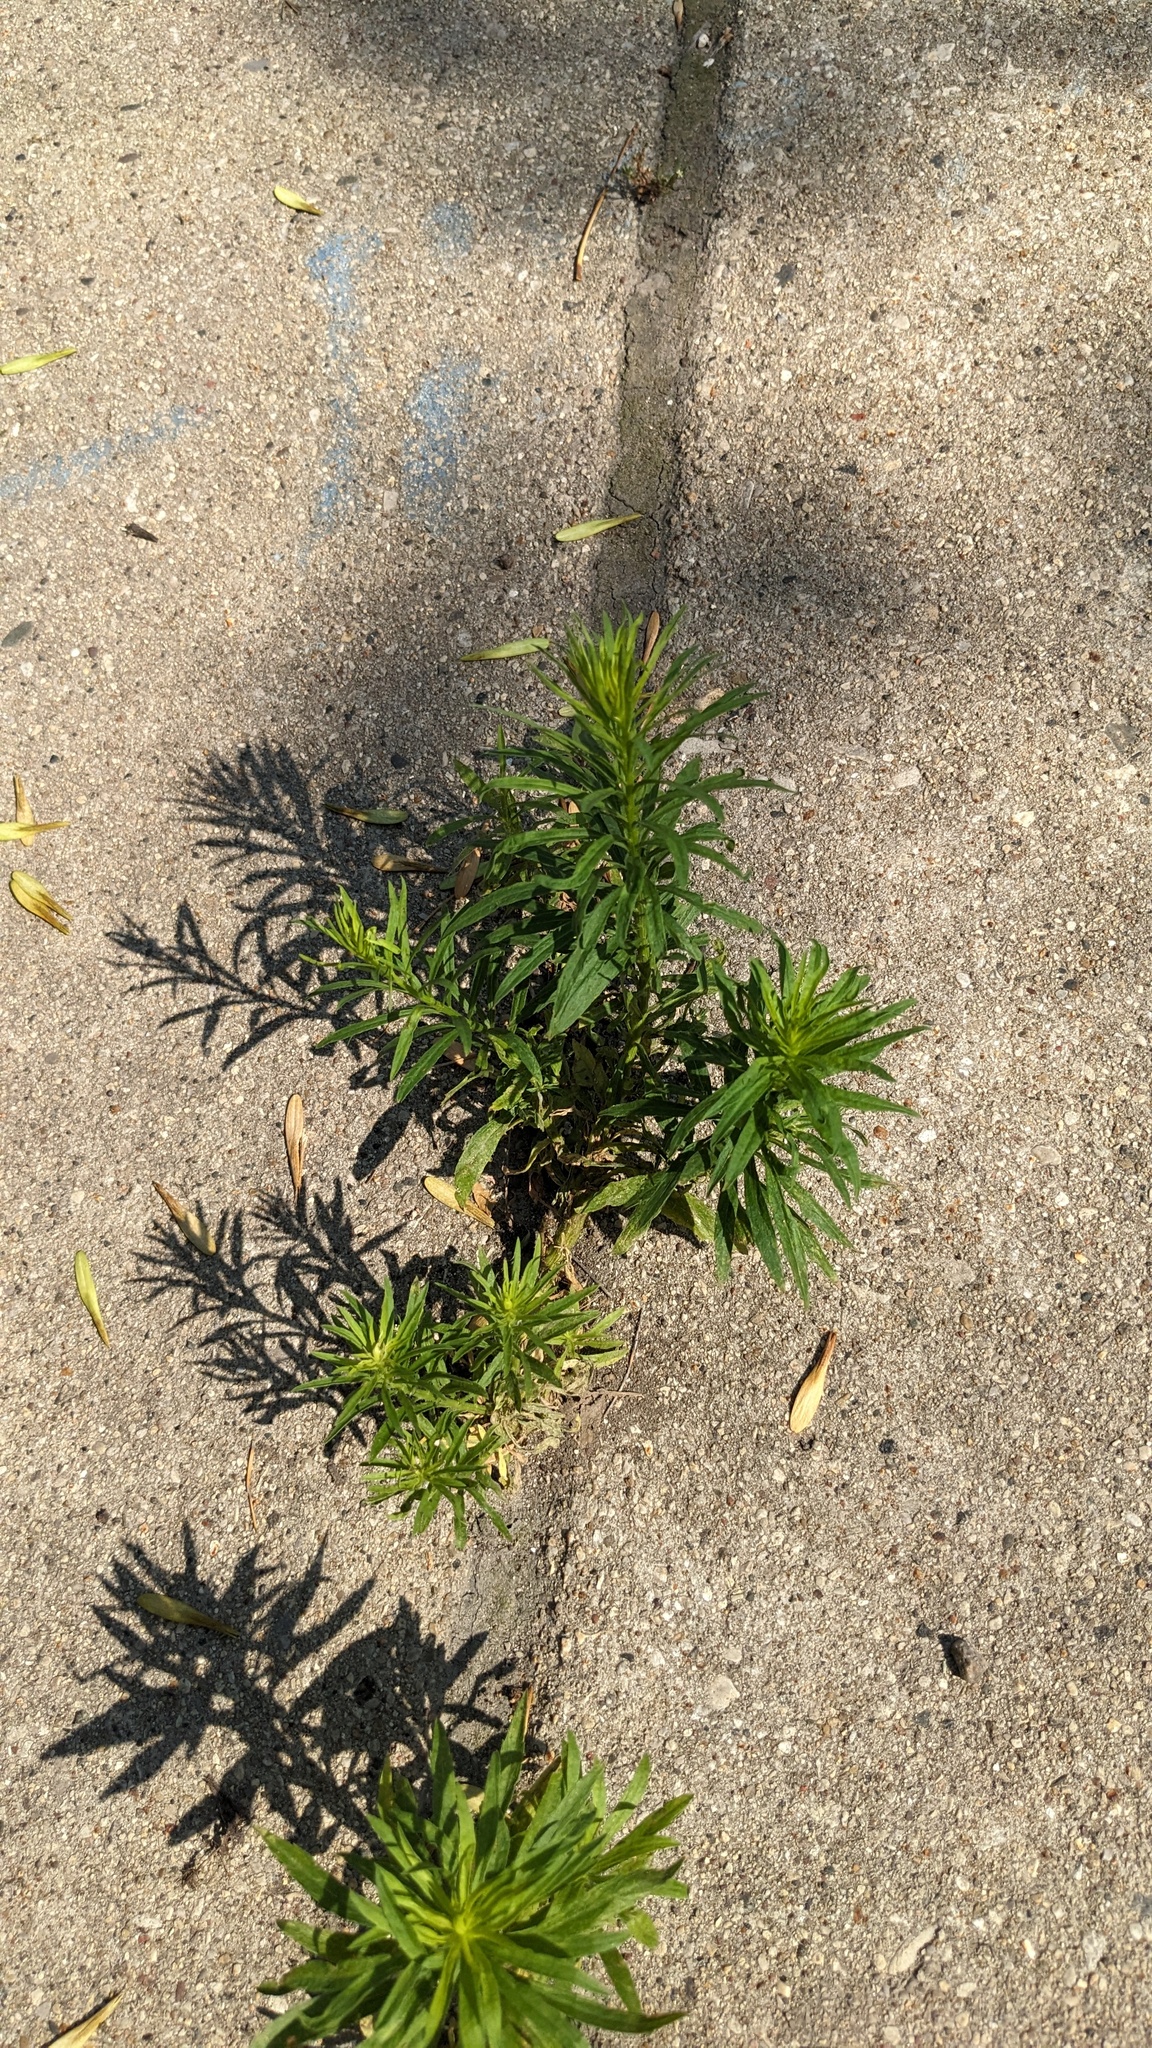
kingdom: Plantae
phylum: Tracheophyta
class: Magnoliopsida
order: Asterales
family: Asteraceae
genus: Erigeron
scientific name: Erigeron canadensis
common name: Canadian fleabane
